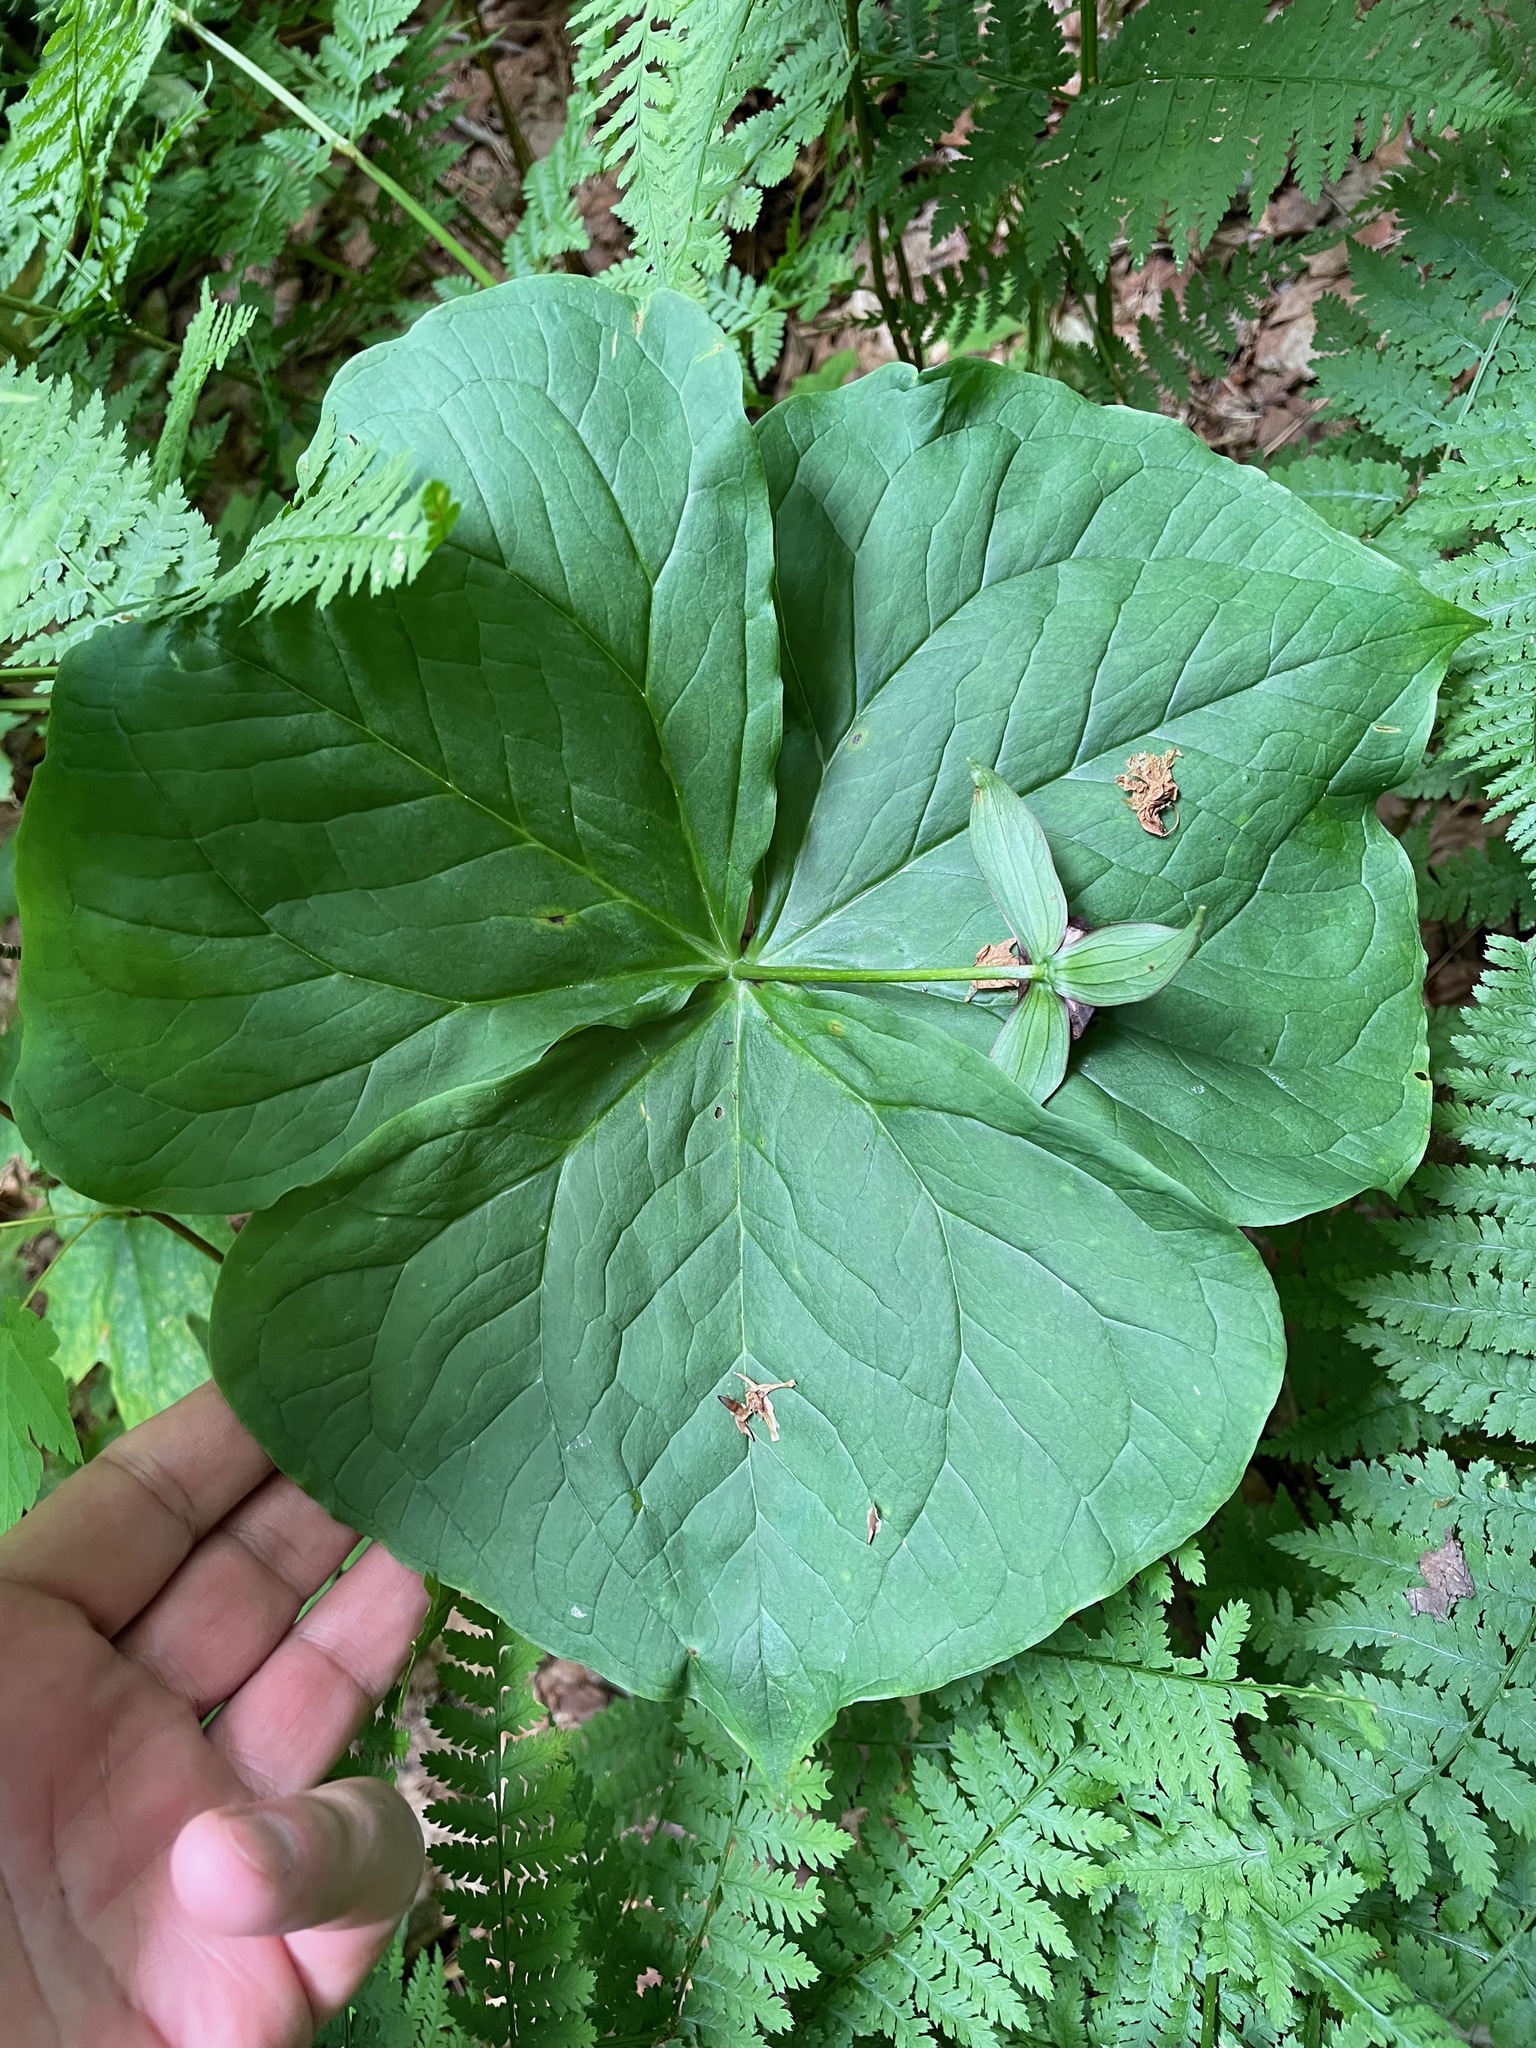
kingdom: Plantae
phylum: Tracheophyta
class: Liliopsida
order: Liliales
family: Melanthiaceae
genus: Trillium
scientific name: Trillium erectum
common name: Purple trillium
